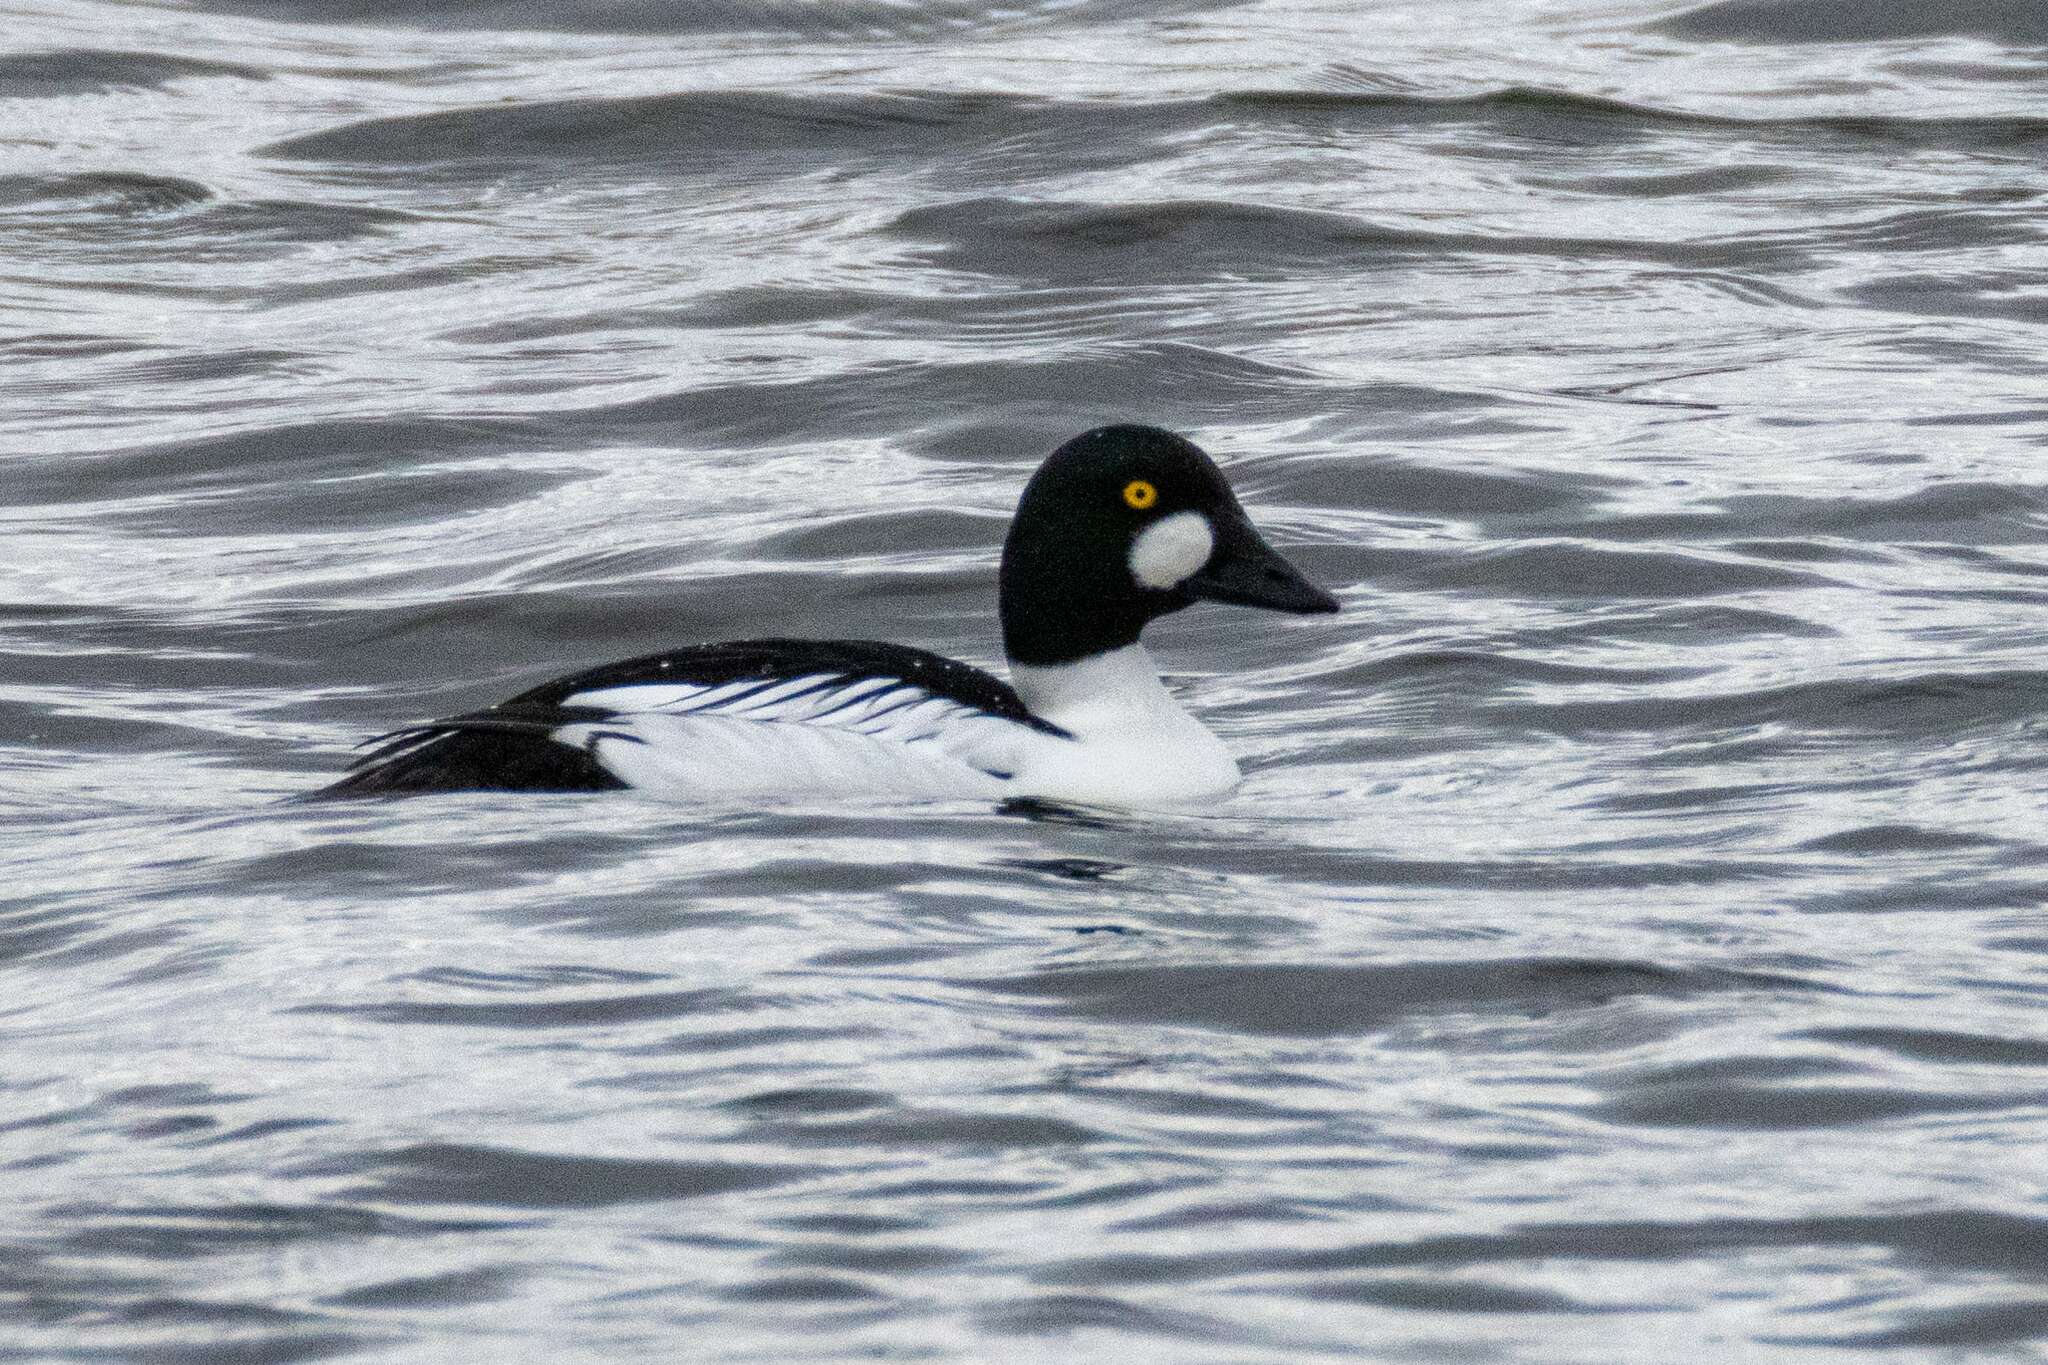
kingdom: Animalia
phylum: Chordata
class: Aves
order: Anseriformes
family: Anatidae
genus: Bucephala
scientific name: Bucephala clangula
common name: Common goldeneye
